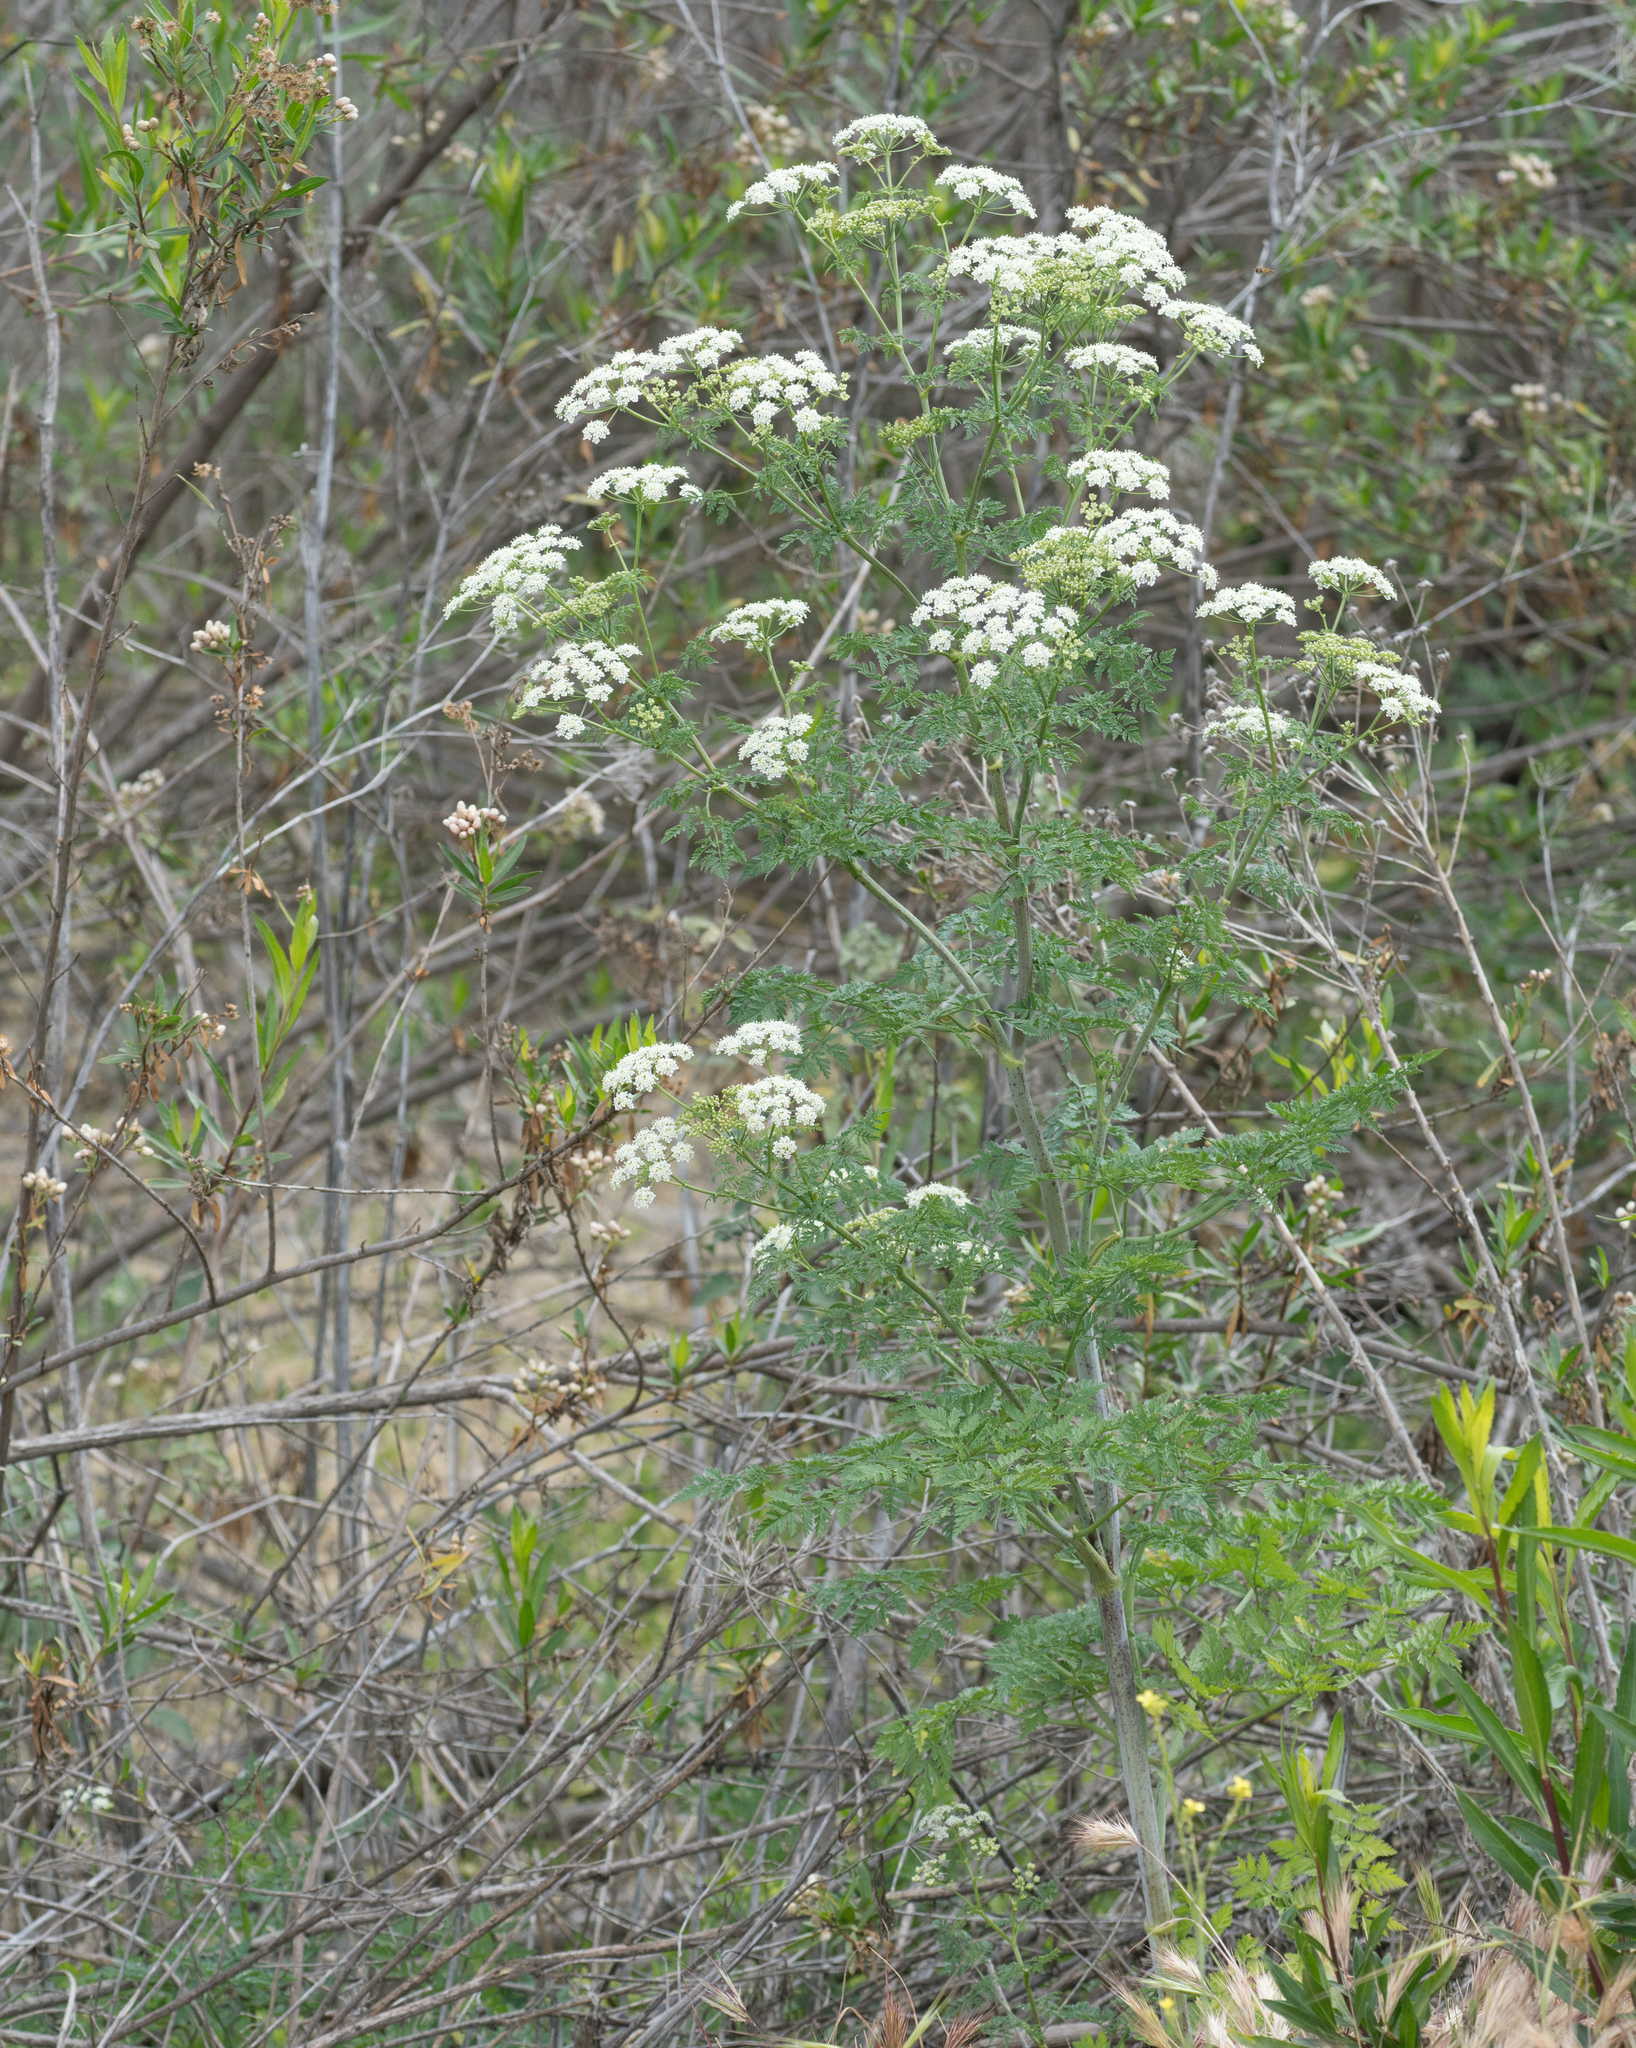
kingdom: Plantae
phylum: Tracheophyta
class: Magnoliopsida
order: Apiales
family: Apiaceae
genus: Conium
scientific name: Conium maculatum
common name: Hemlock
